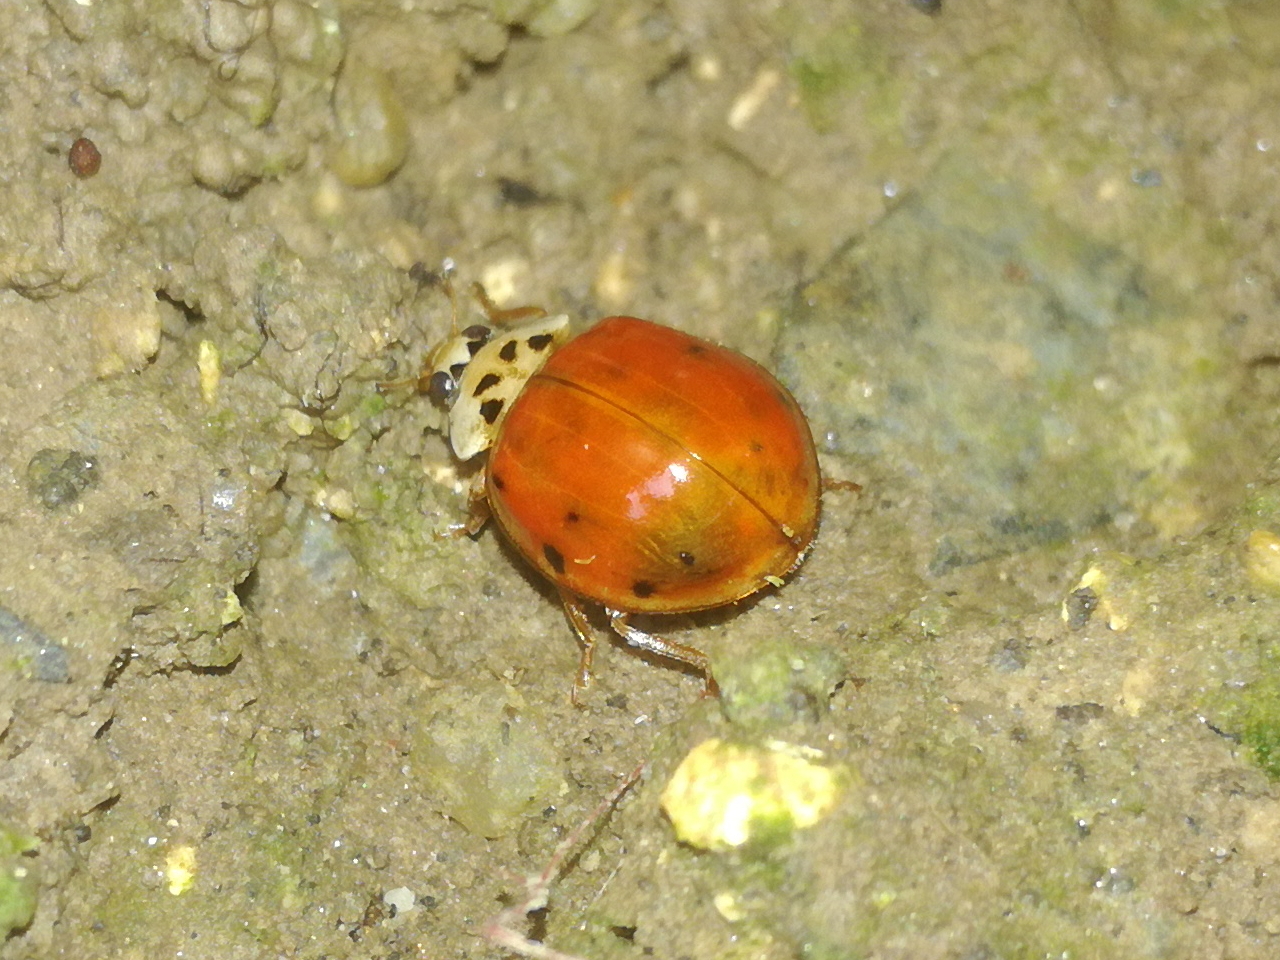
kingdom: Fungi
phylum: Ascomycota
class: Laboulbeniomycetes
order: Laboulbeniales
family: Laboulbeniaceae
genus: Hesperomyces
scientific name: Hesperomyces harmoniae
